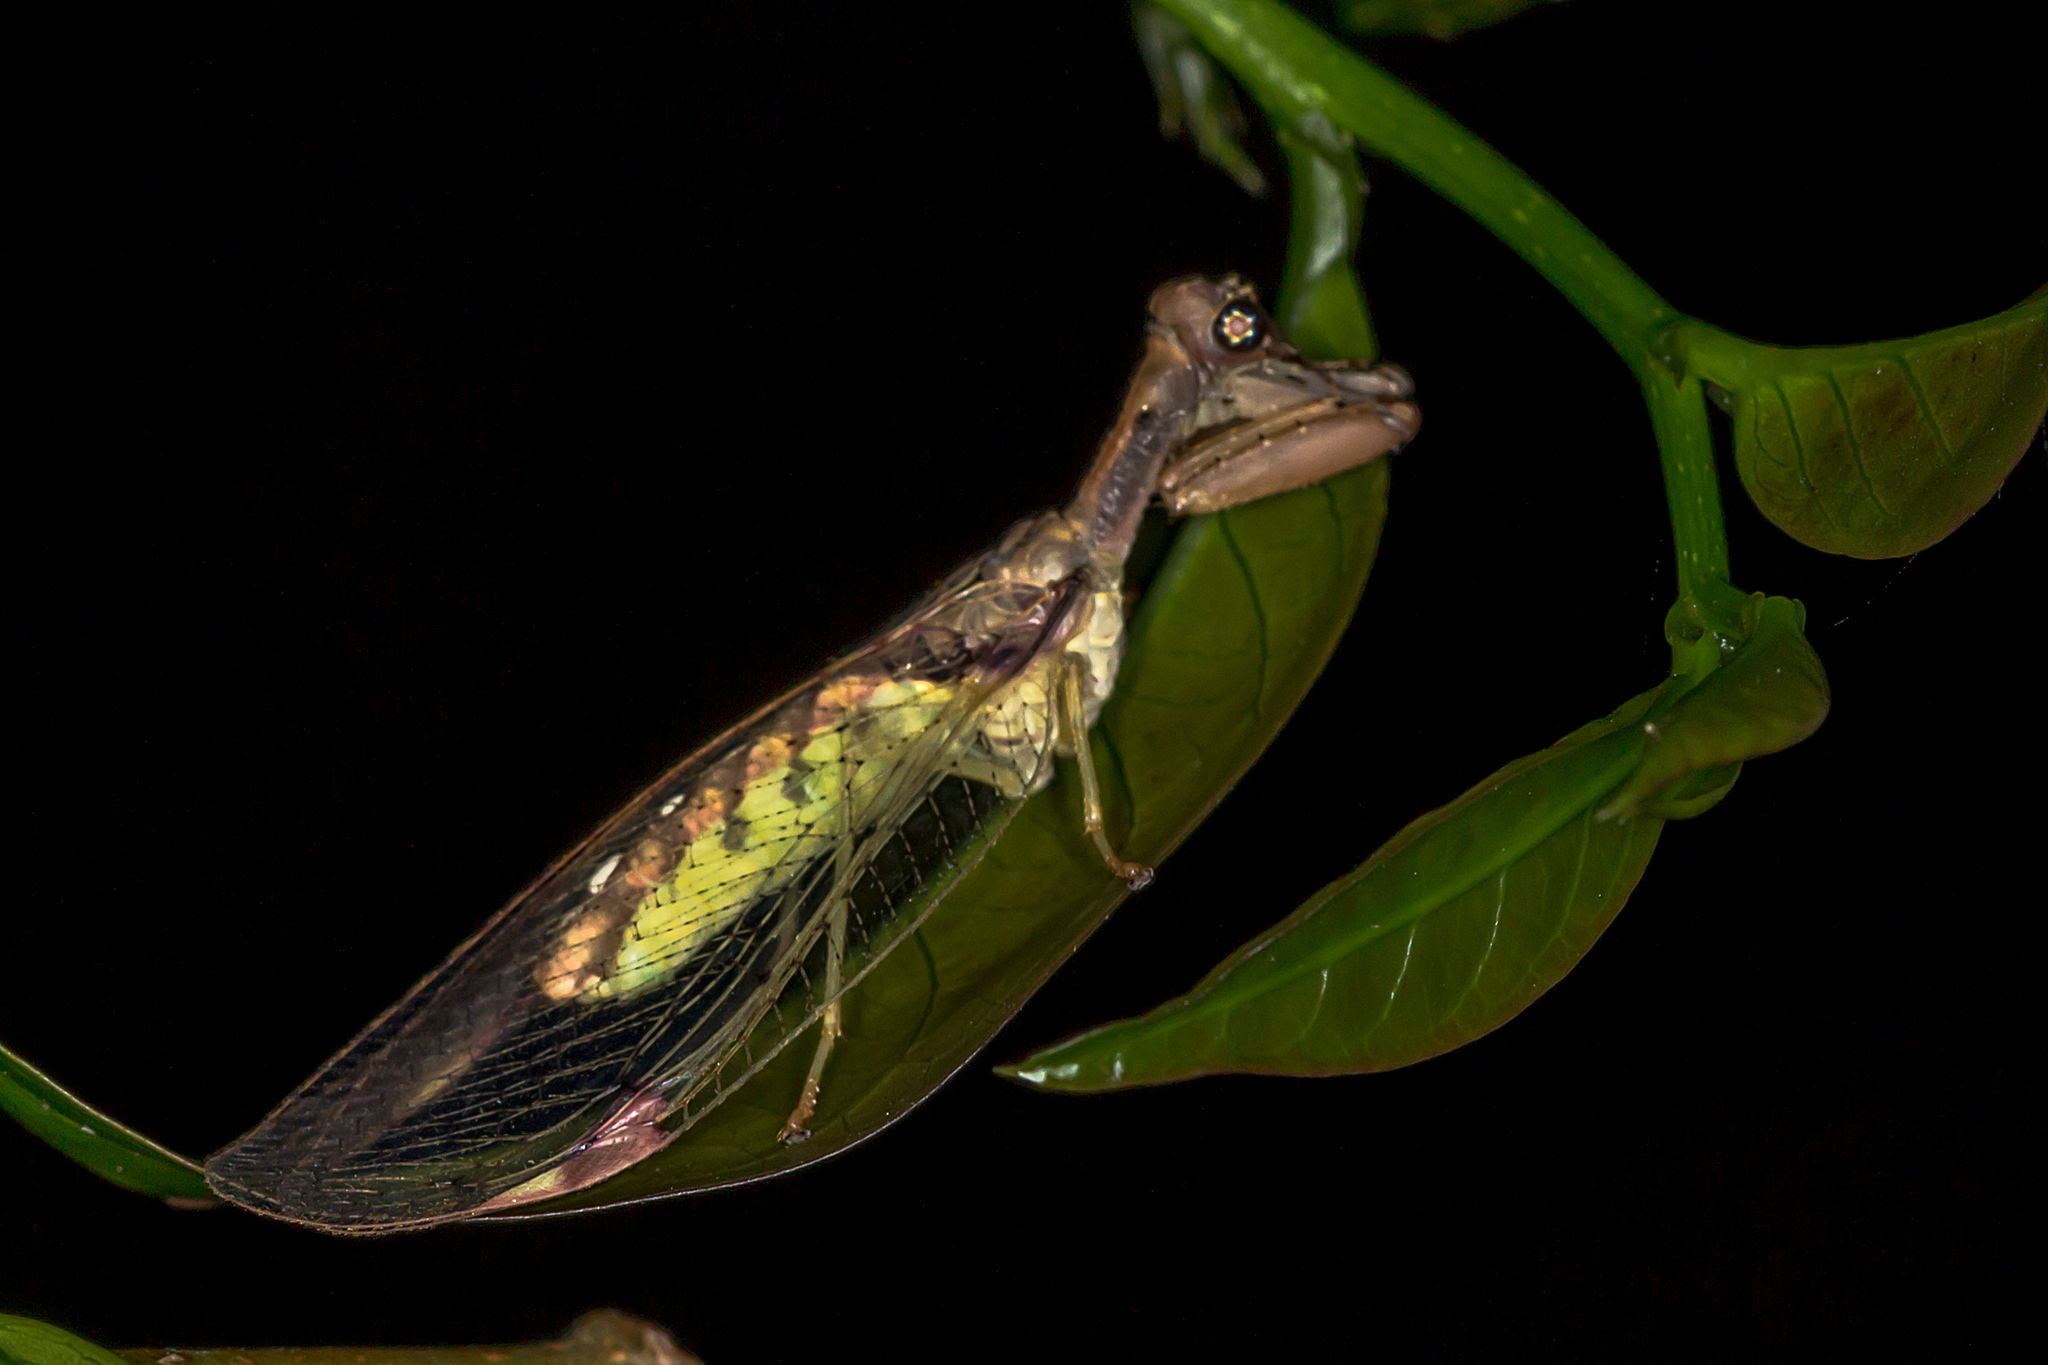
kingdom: Animalia
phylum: Arthropoda
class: Insecta
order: Neuroptera
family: Mantispidae
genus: Ditaxis
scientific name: Ditaxis biseriata
